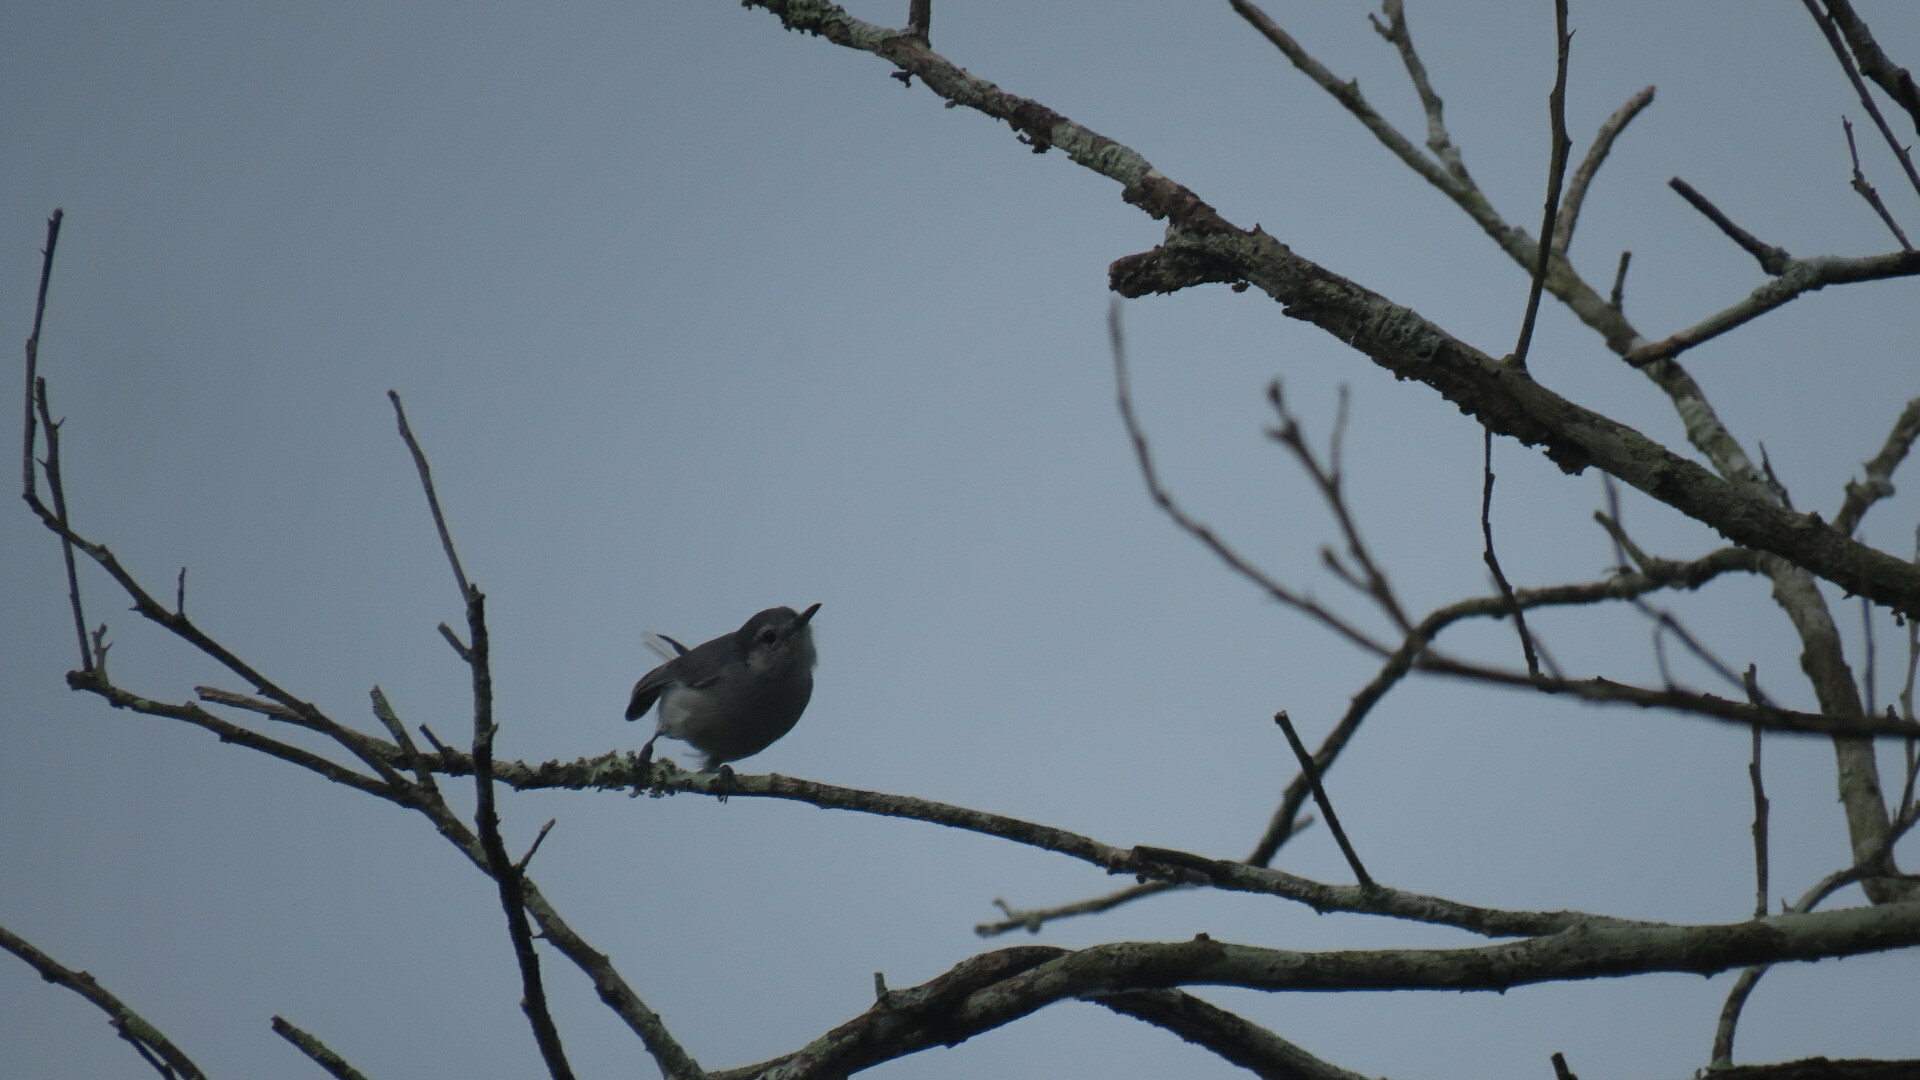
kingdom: Animalia
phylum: Chordata
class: Aves
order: Passeriformes
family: Polioptilidae
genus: Polioptila
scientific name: Polioptila plumbea
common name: Tropical gnatcatcher
